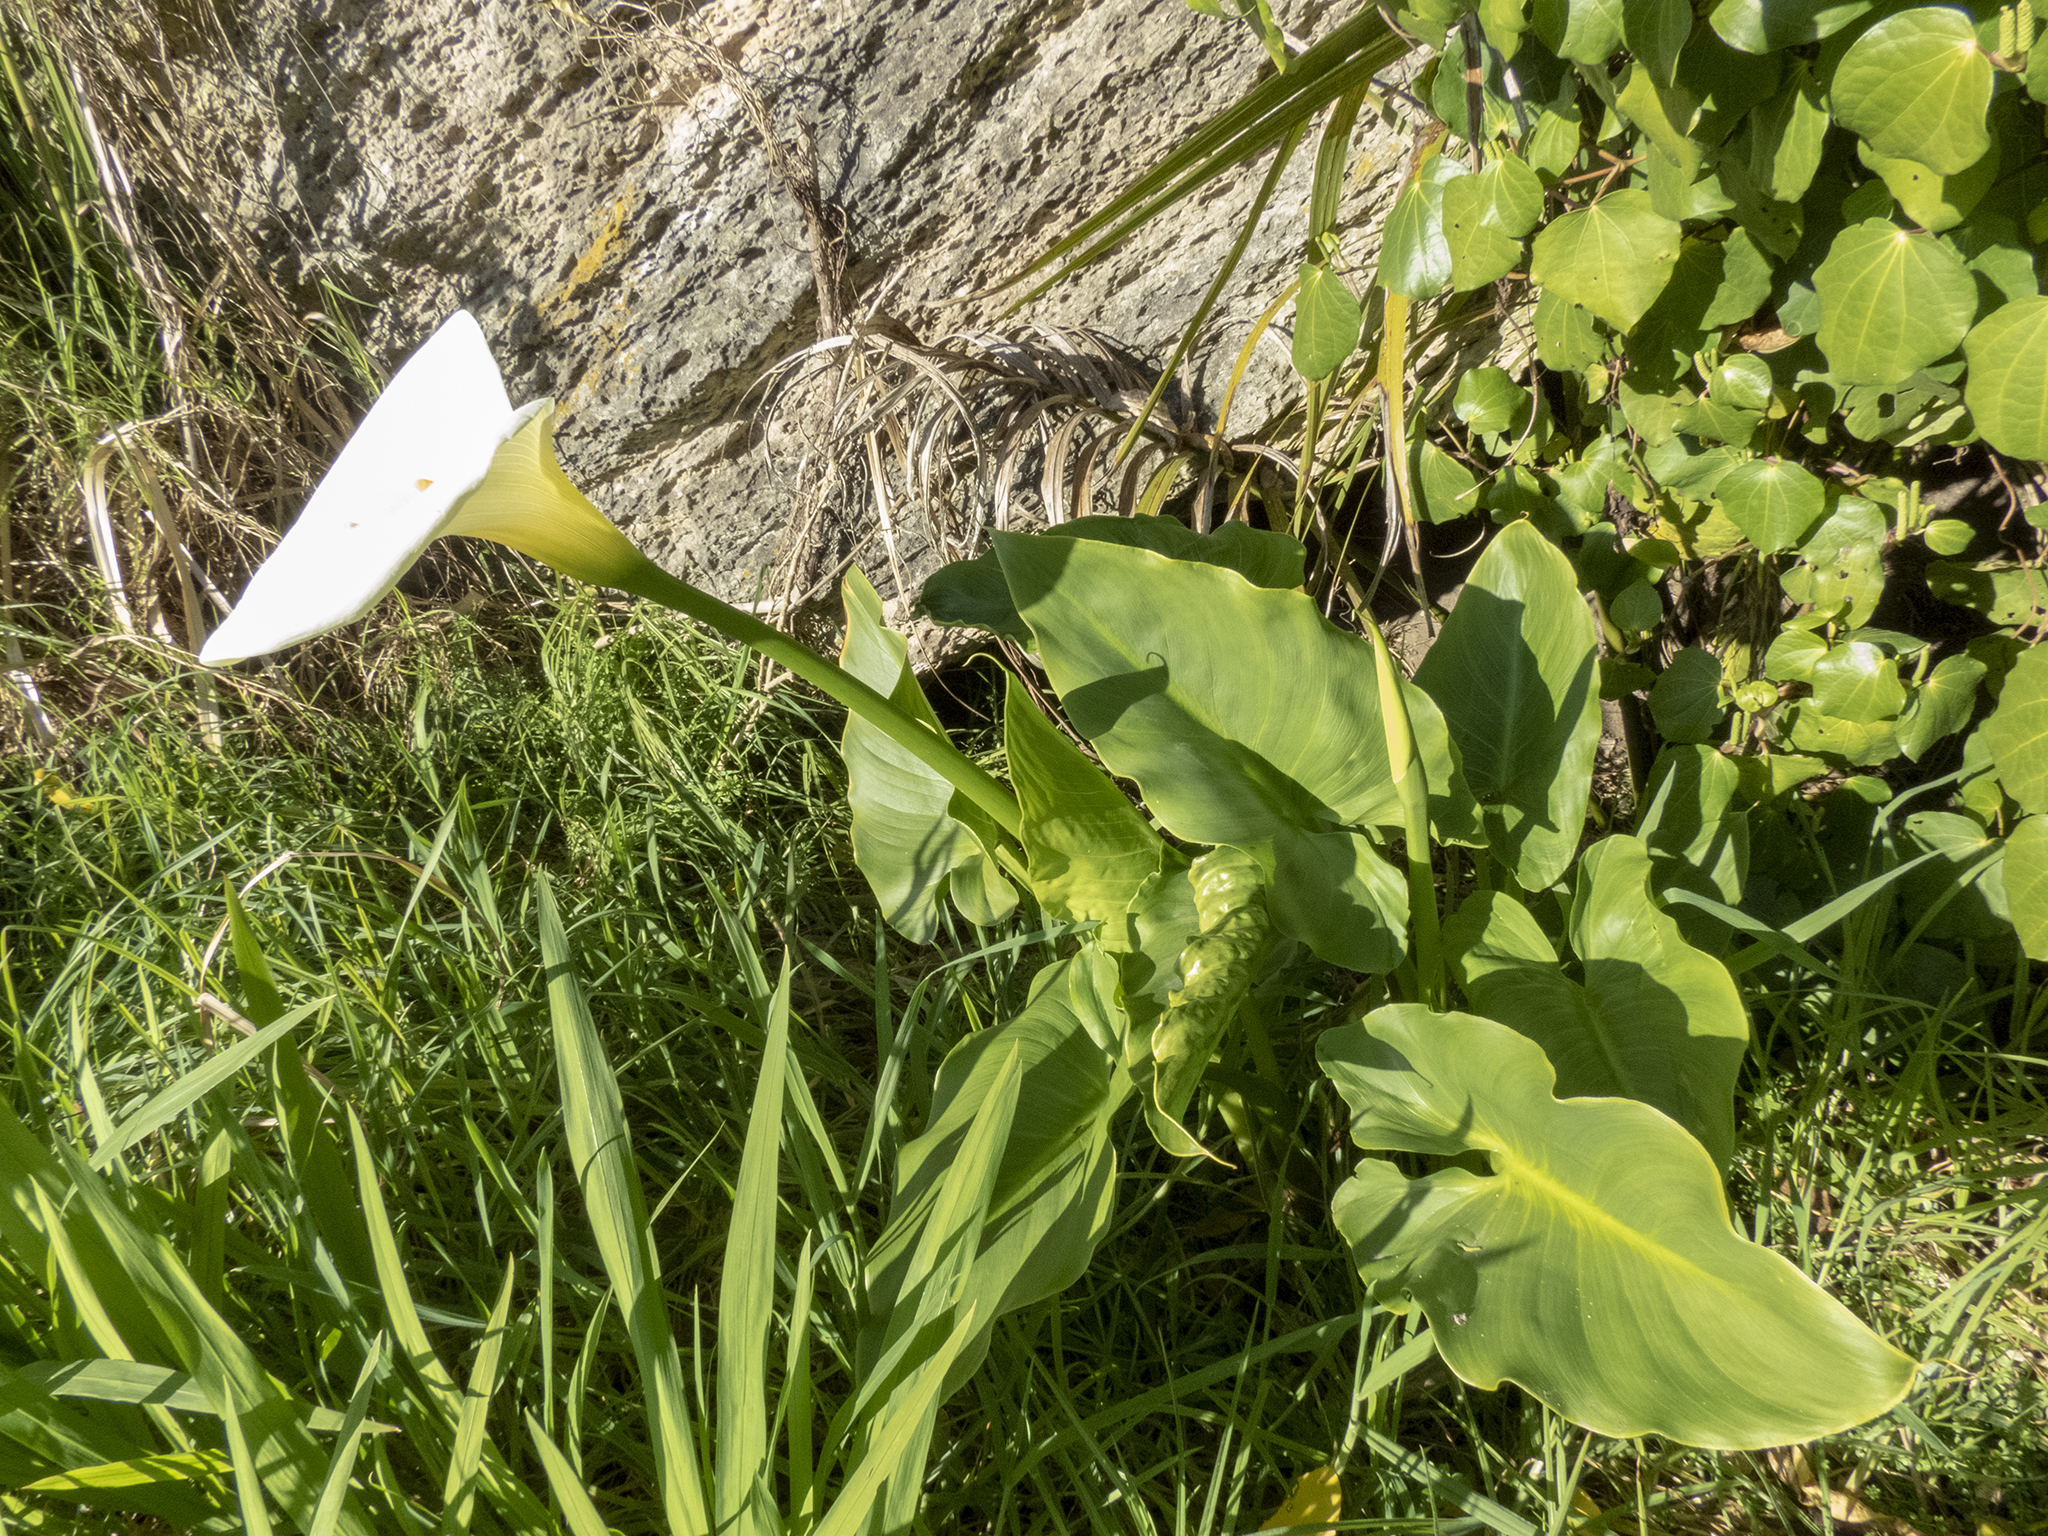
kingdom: Plantae
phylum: Tracheophyta
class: Liliopsida
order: Alismatales
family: Araceae
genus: Zantedeschia
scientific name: Zantedeschia aethiopica
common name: Altar-lily
